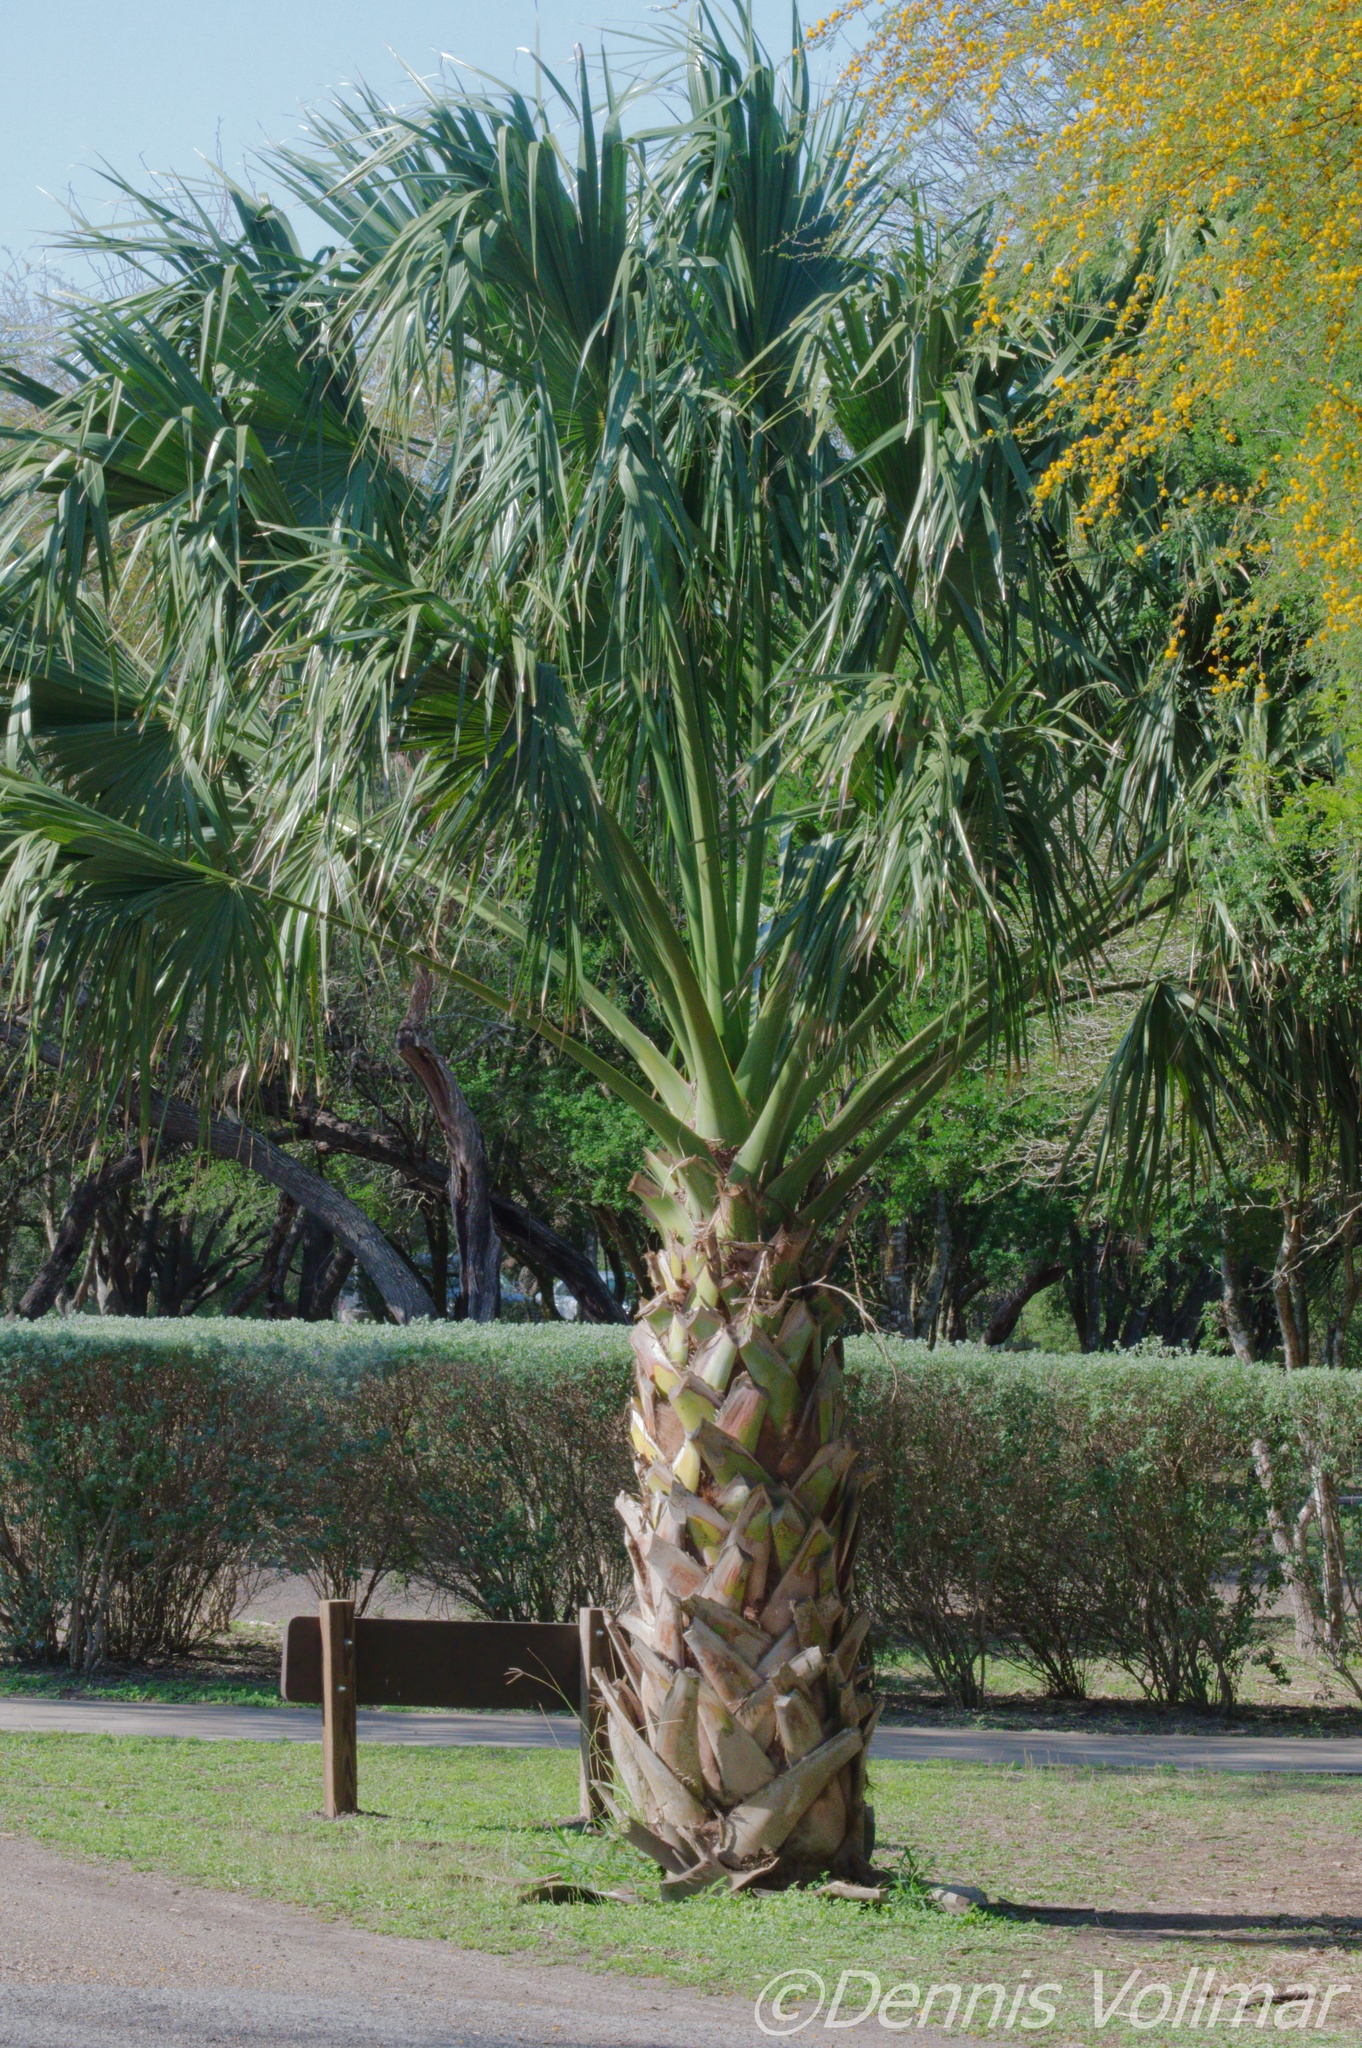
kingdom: Plantae
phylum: Tracheophyta
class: Liliopsida
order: Arecales
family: Arecaceae
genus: Sabal
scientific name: Sabal mexicana
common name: Texas palmetto
